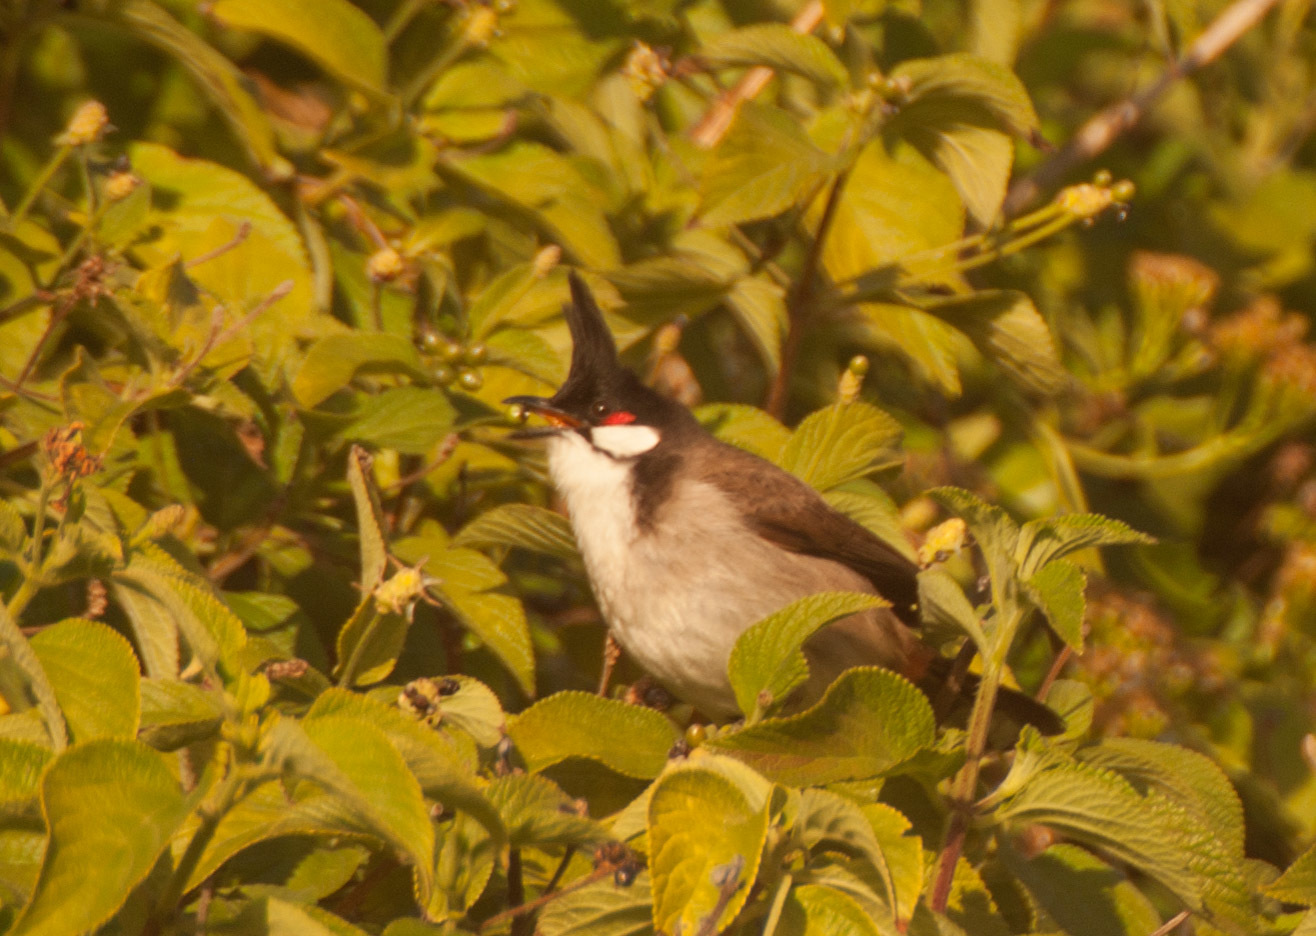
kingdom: Animalia
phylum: Chordata
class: Aves
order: Passeriformes
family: Pycnonotidae
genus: Pycnonotus
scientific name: Pycnonotus jocosus
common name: Red-whiskered bulbul
